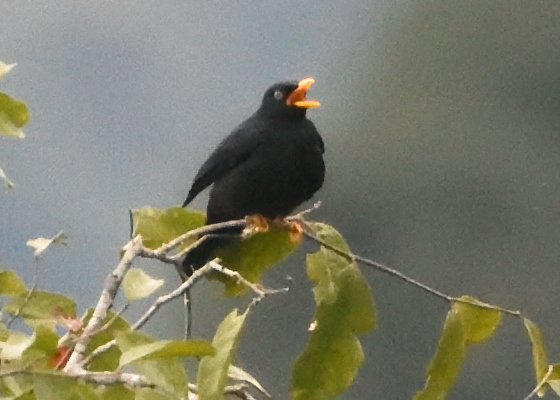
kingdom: Animalia
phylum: Chordata
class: Aves
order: Passeriformes
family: Turdidae
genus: Turdus
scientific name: Turdus leucops
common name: Pale-eyed thrush
